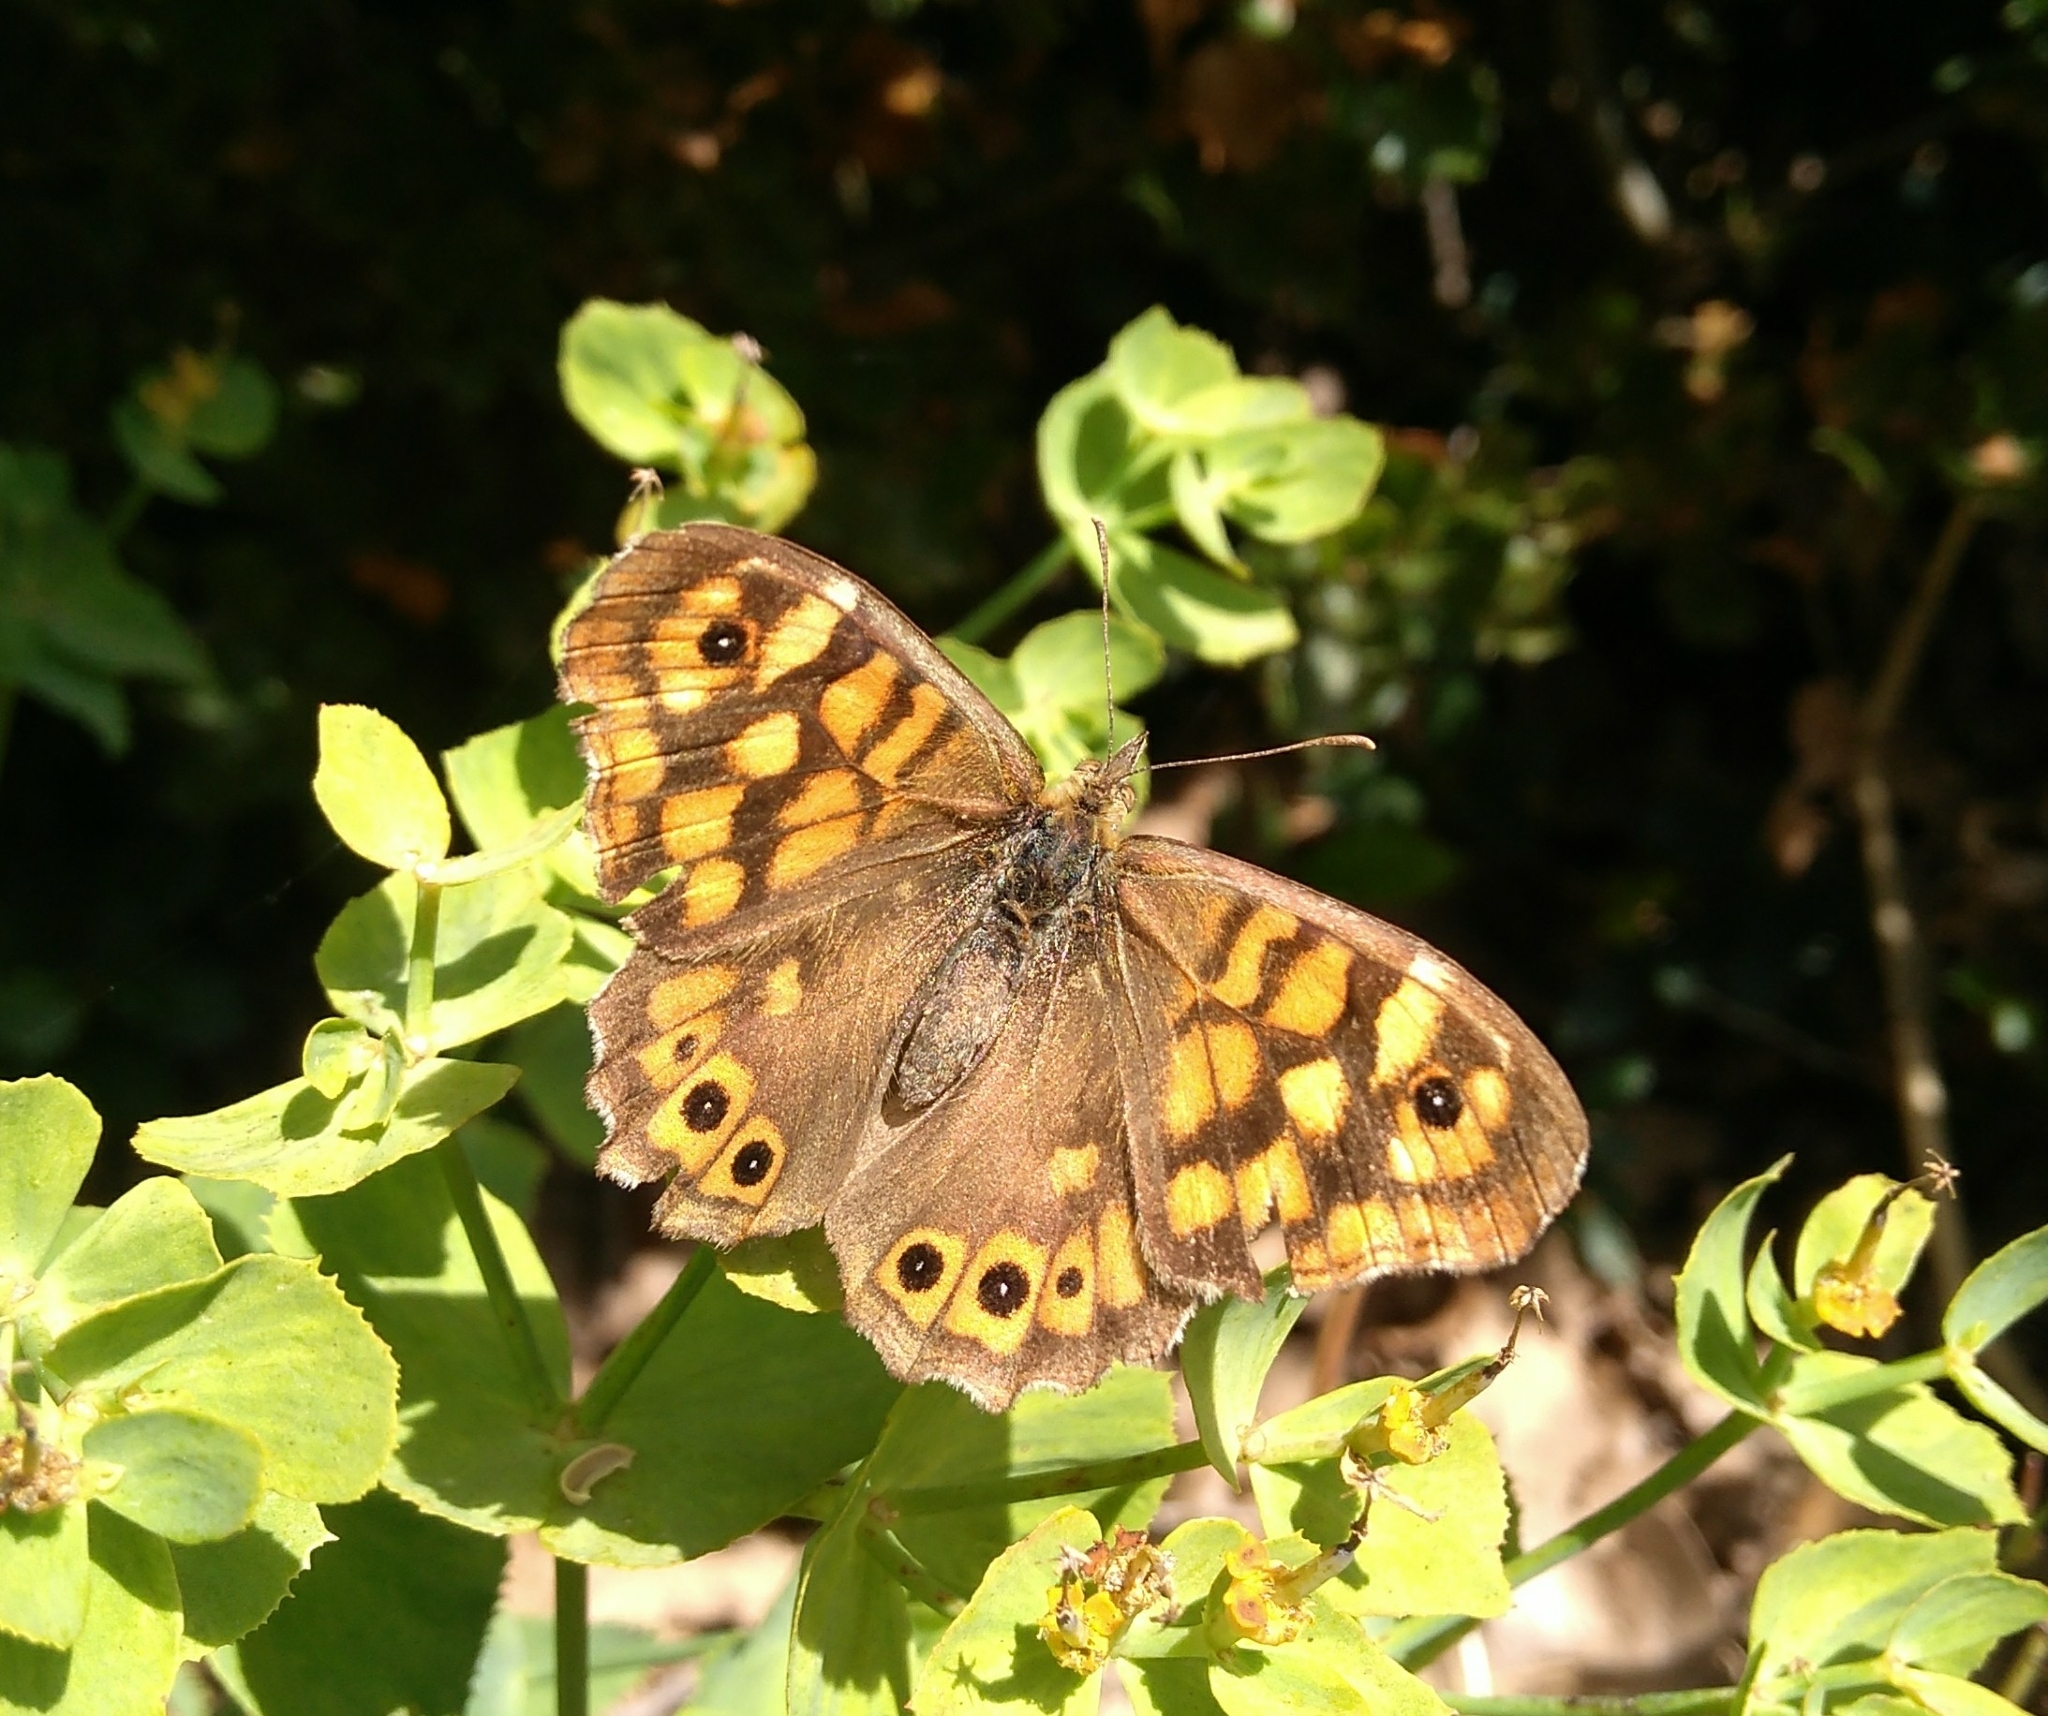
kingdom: Animalia
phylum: Arthropoda
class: Insecta
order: Lepidoptera
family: Nymphalidae
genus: Pararge
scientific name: Pararge aegeria
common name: Speckled wood
